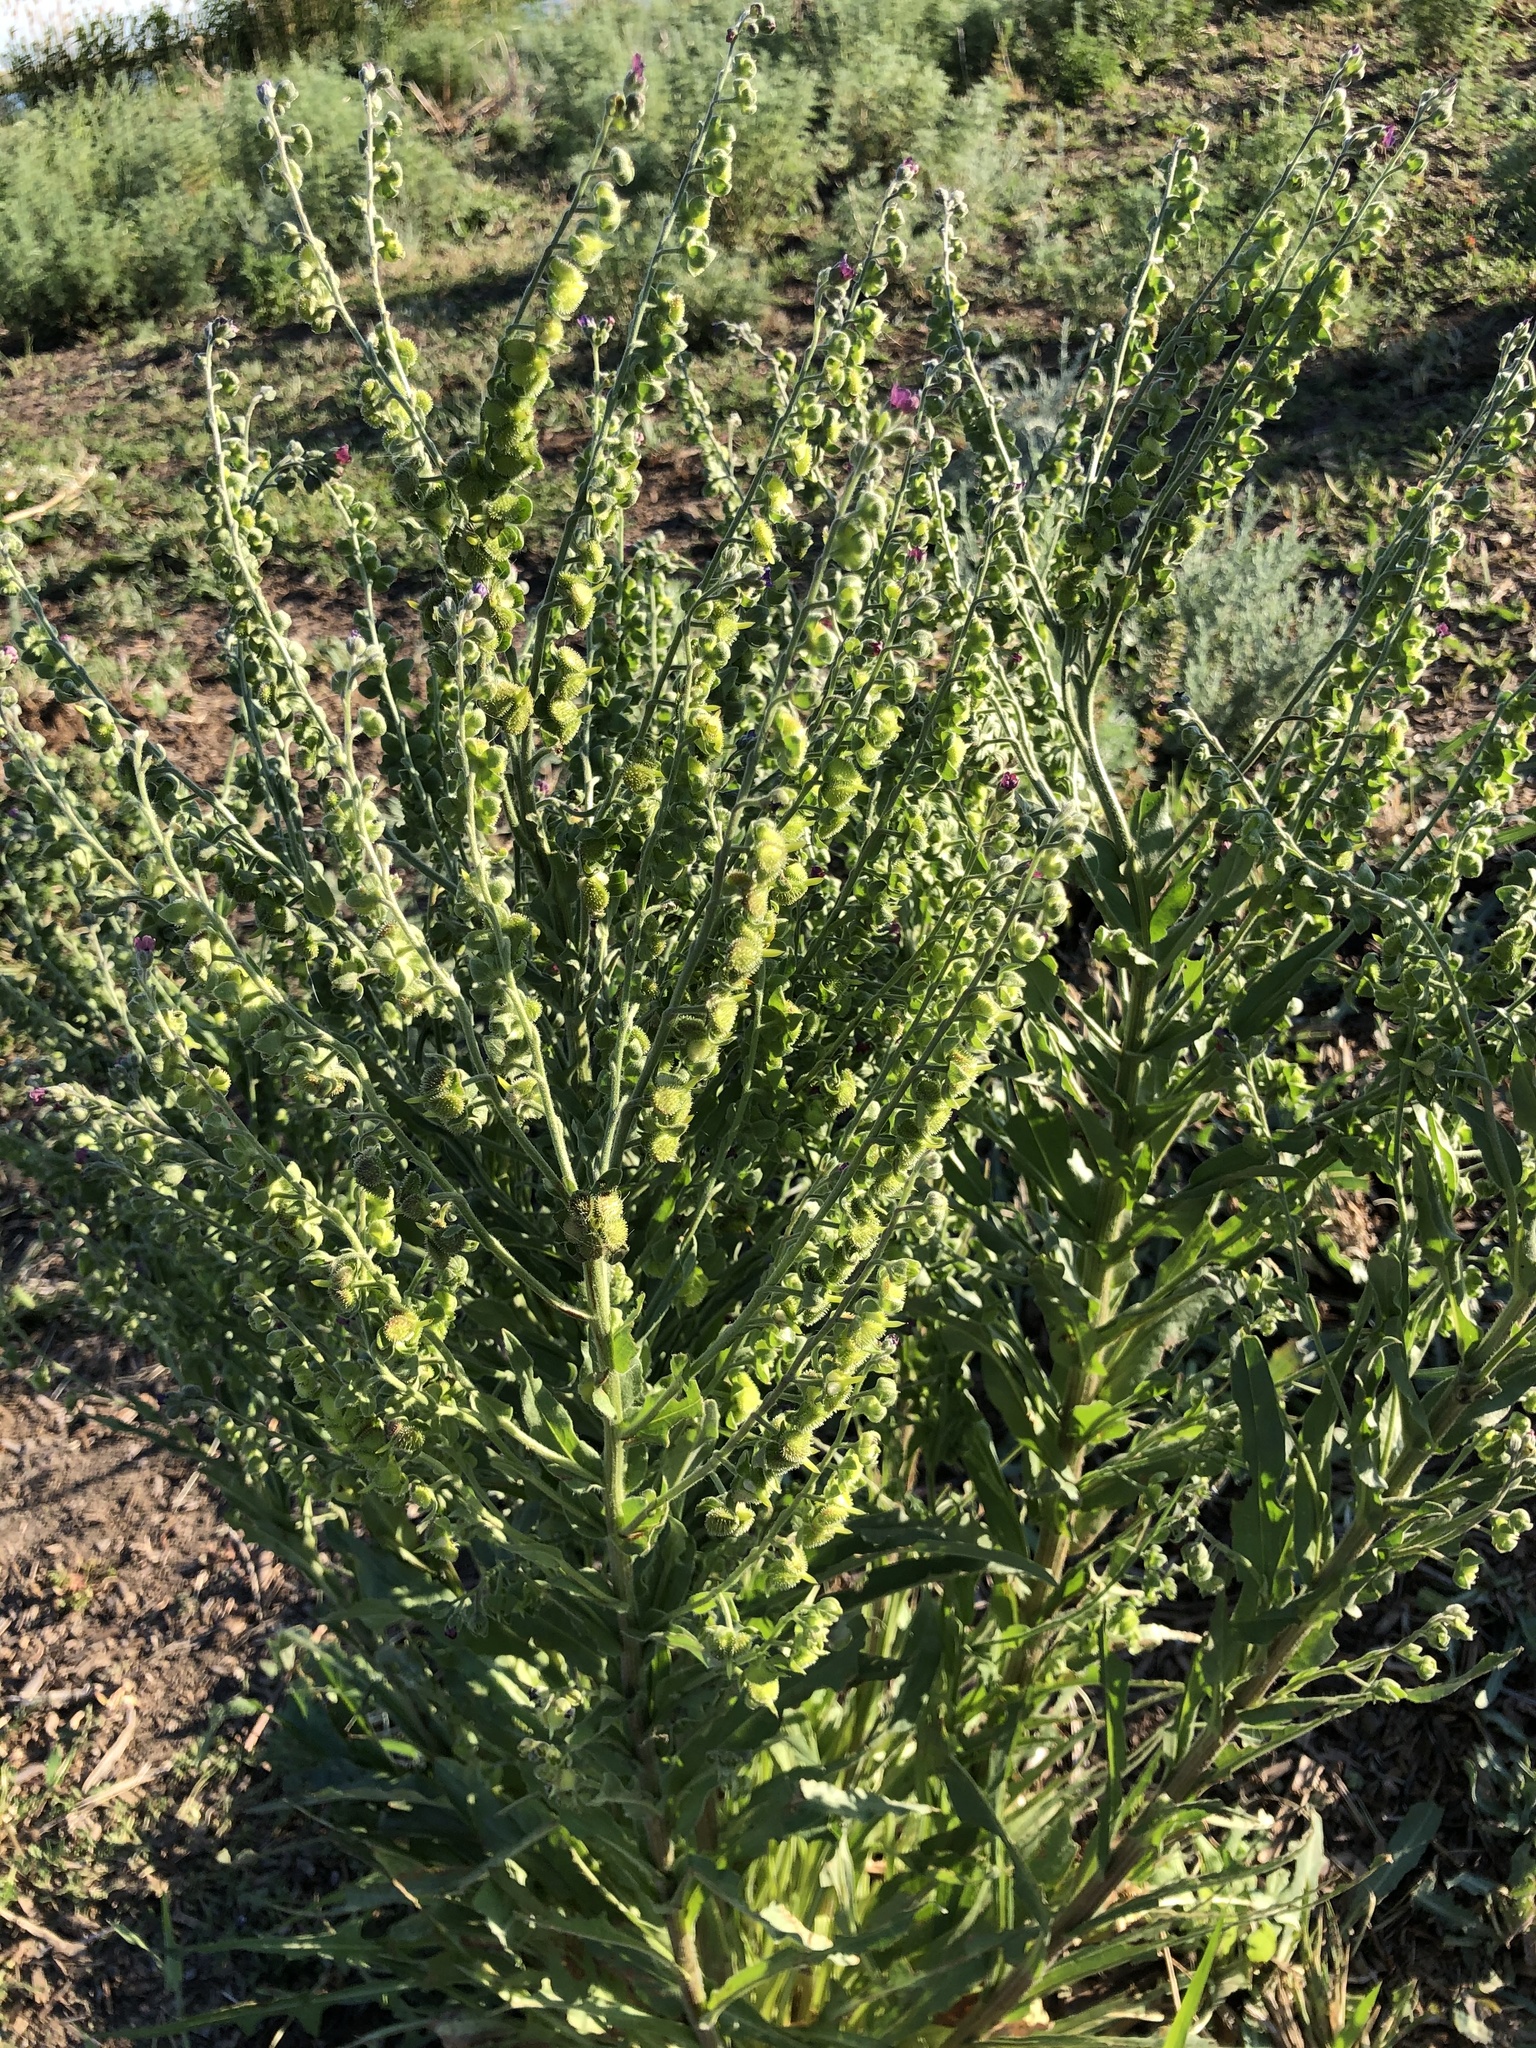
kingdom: Plantae
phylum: Tracheophyta
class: Magnoliopsida
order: Boraginales
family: Boraginaceae
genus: Cynoglossum
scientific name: Cynoglossum officinale
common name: Hound's-tongue
